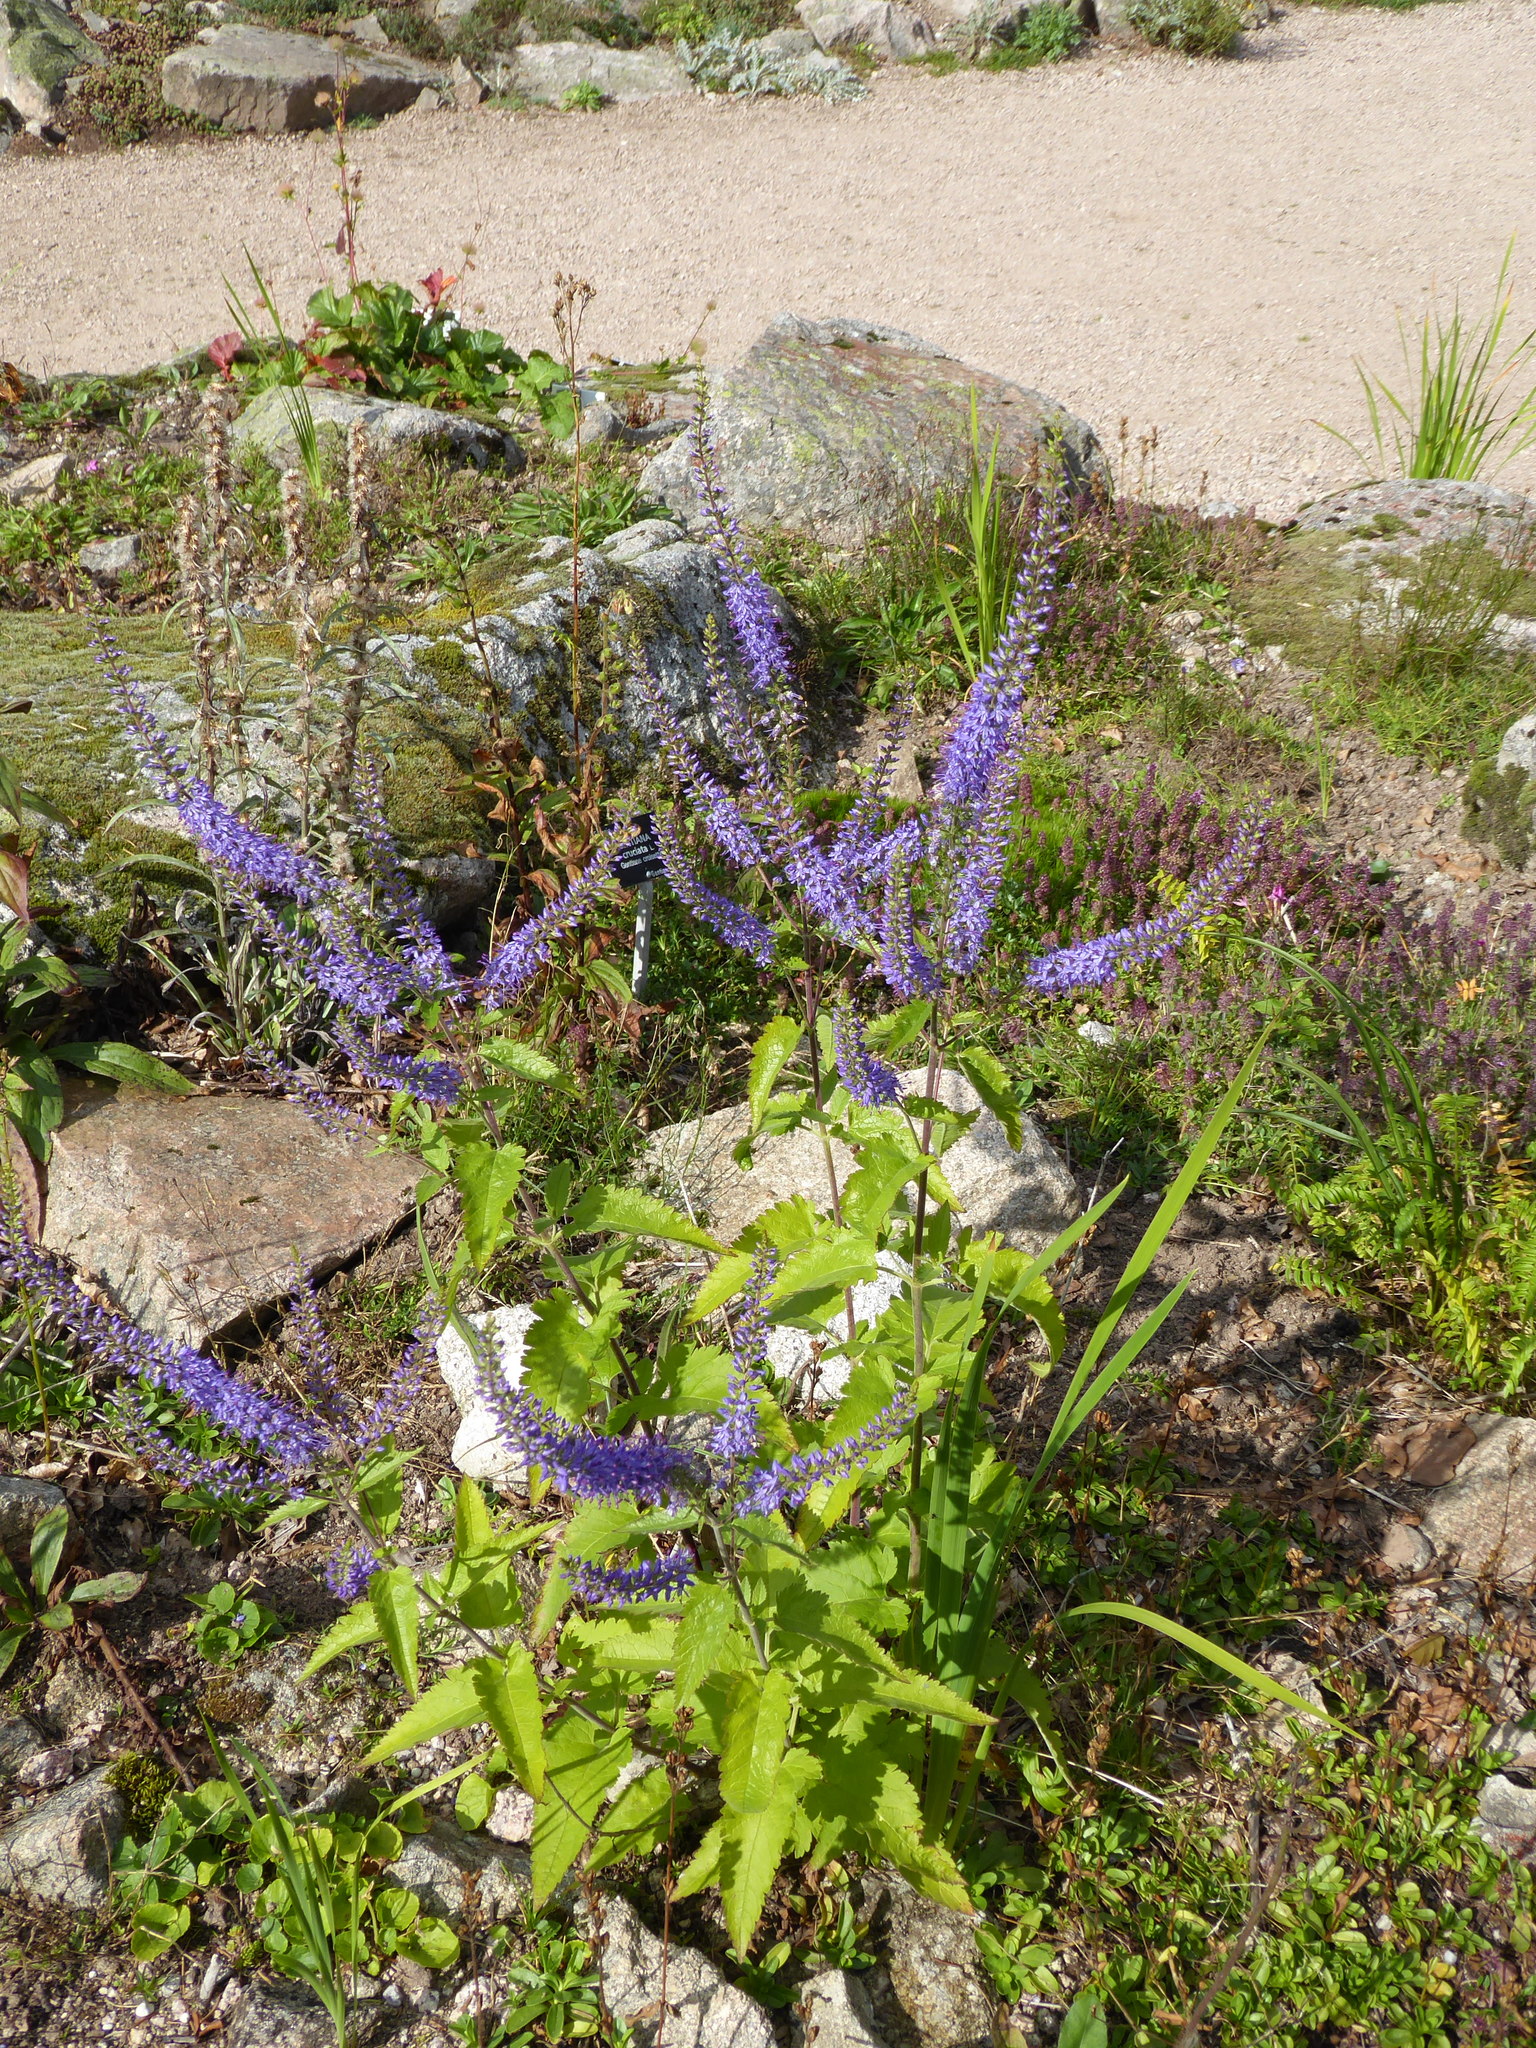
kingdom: Plantae
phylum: Tracheophyta
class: Magnoliopsida
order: Lamiales
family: Plantaginaceae
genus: Veronica
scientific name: Veronica longifolia
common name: Garden speedwell
